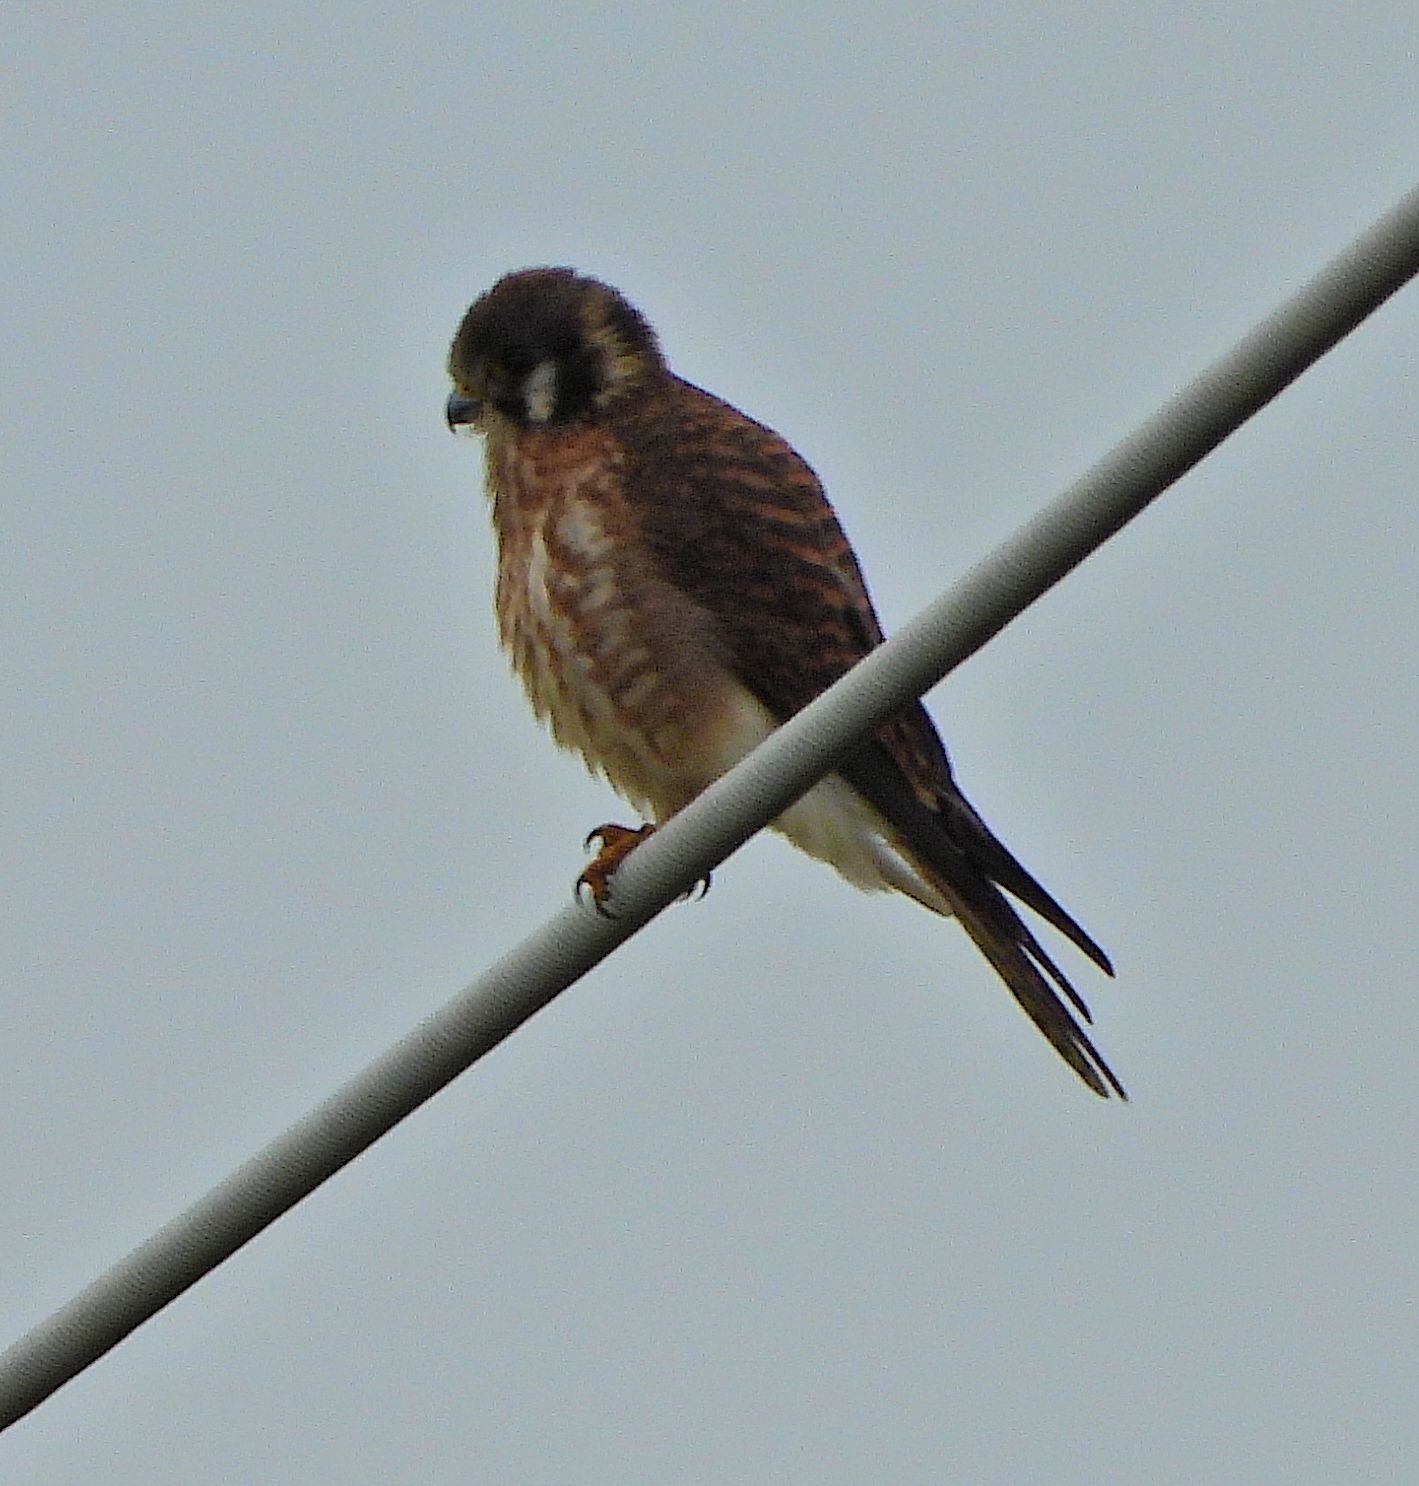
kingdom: Animalia
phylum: Chordata
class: Aves
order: Falconiformes
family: Falconidae
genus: Falco
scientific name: Falco sparverius
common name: American kestrel
